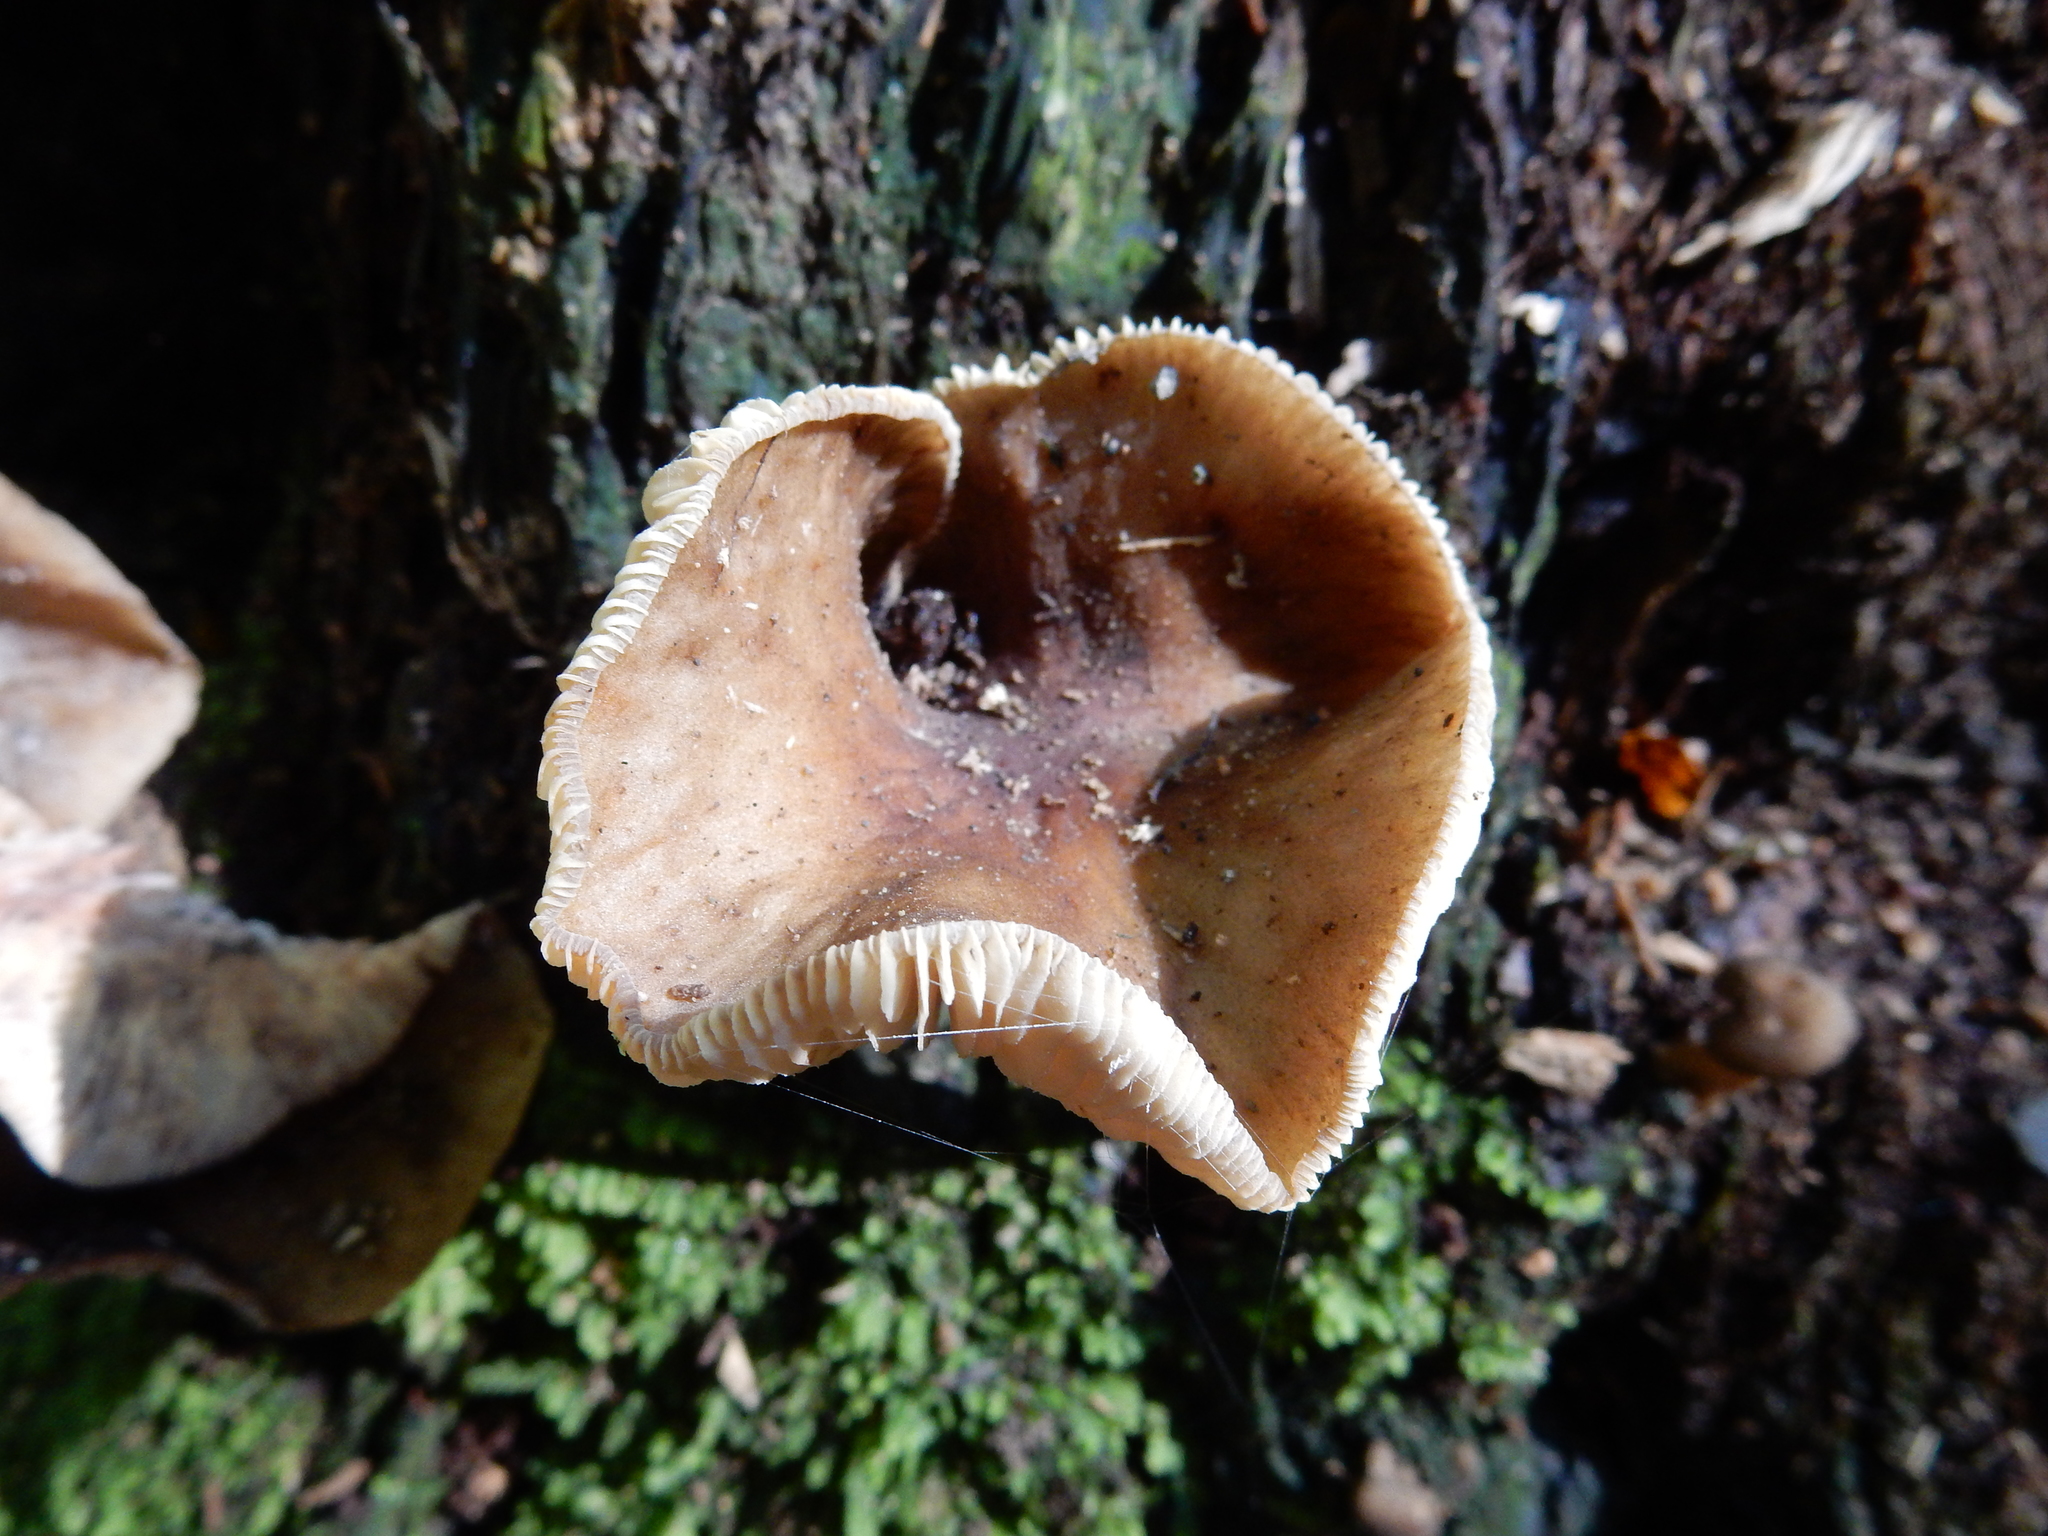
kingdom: Fungi
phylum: Basidiomycota
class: Agaricomycetes
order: Agaricales
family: Physalacriaceae
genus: Armillaria
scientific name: Armillaria novae-zelandiae
